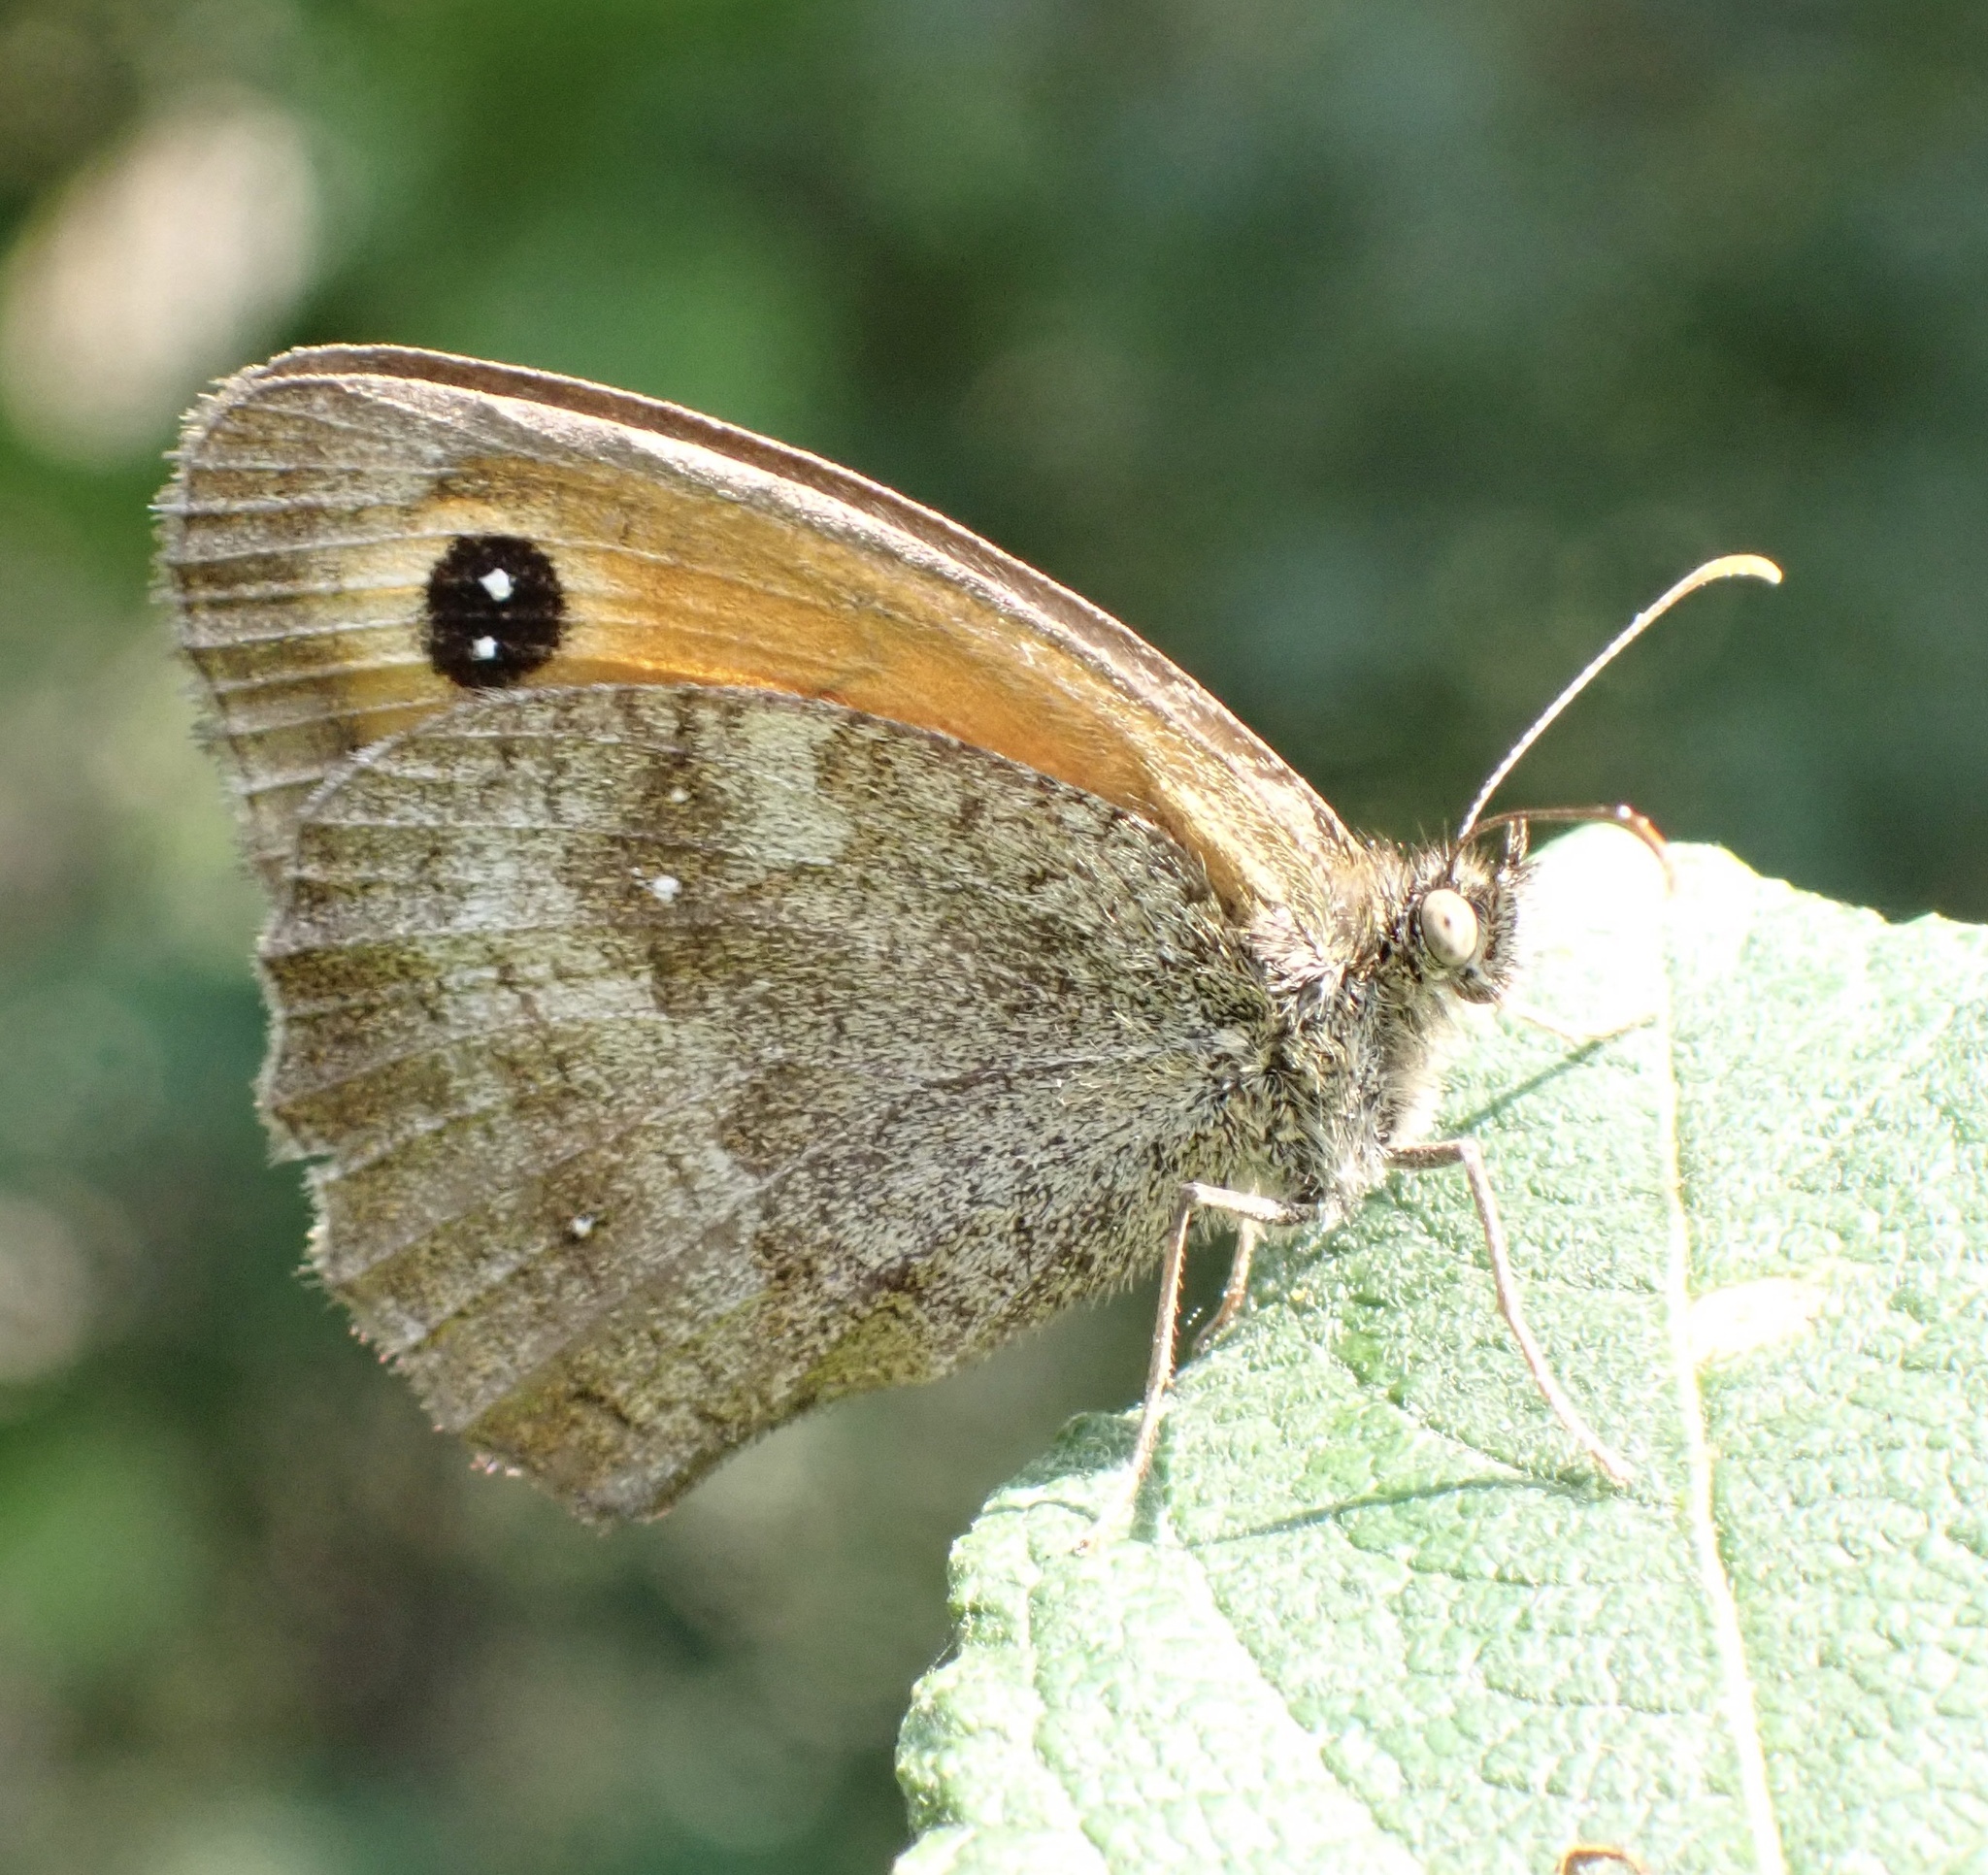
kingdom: Animalia
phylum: Arthropoda
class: Insecta
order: Lepidoptera
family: Nymphalidae
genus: Pyronia
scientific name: Pyronia tithonus
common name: Gatekeeper
